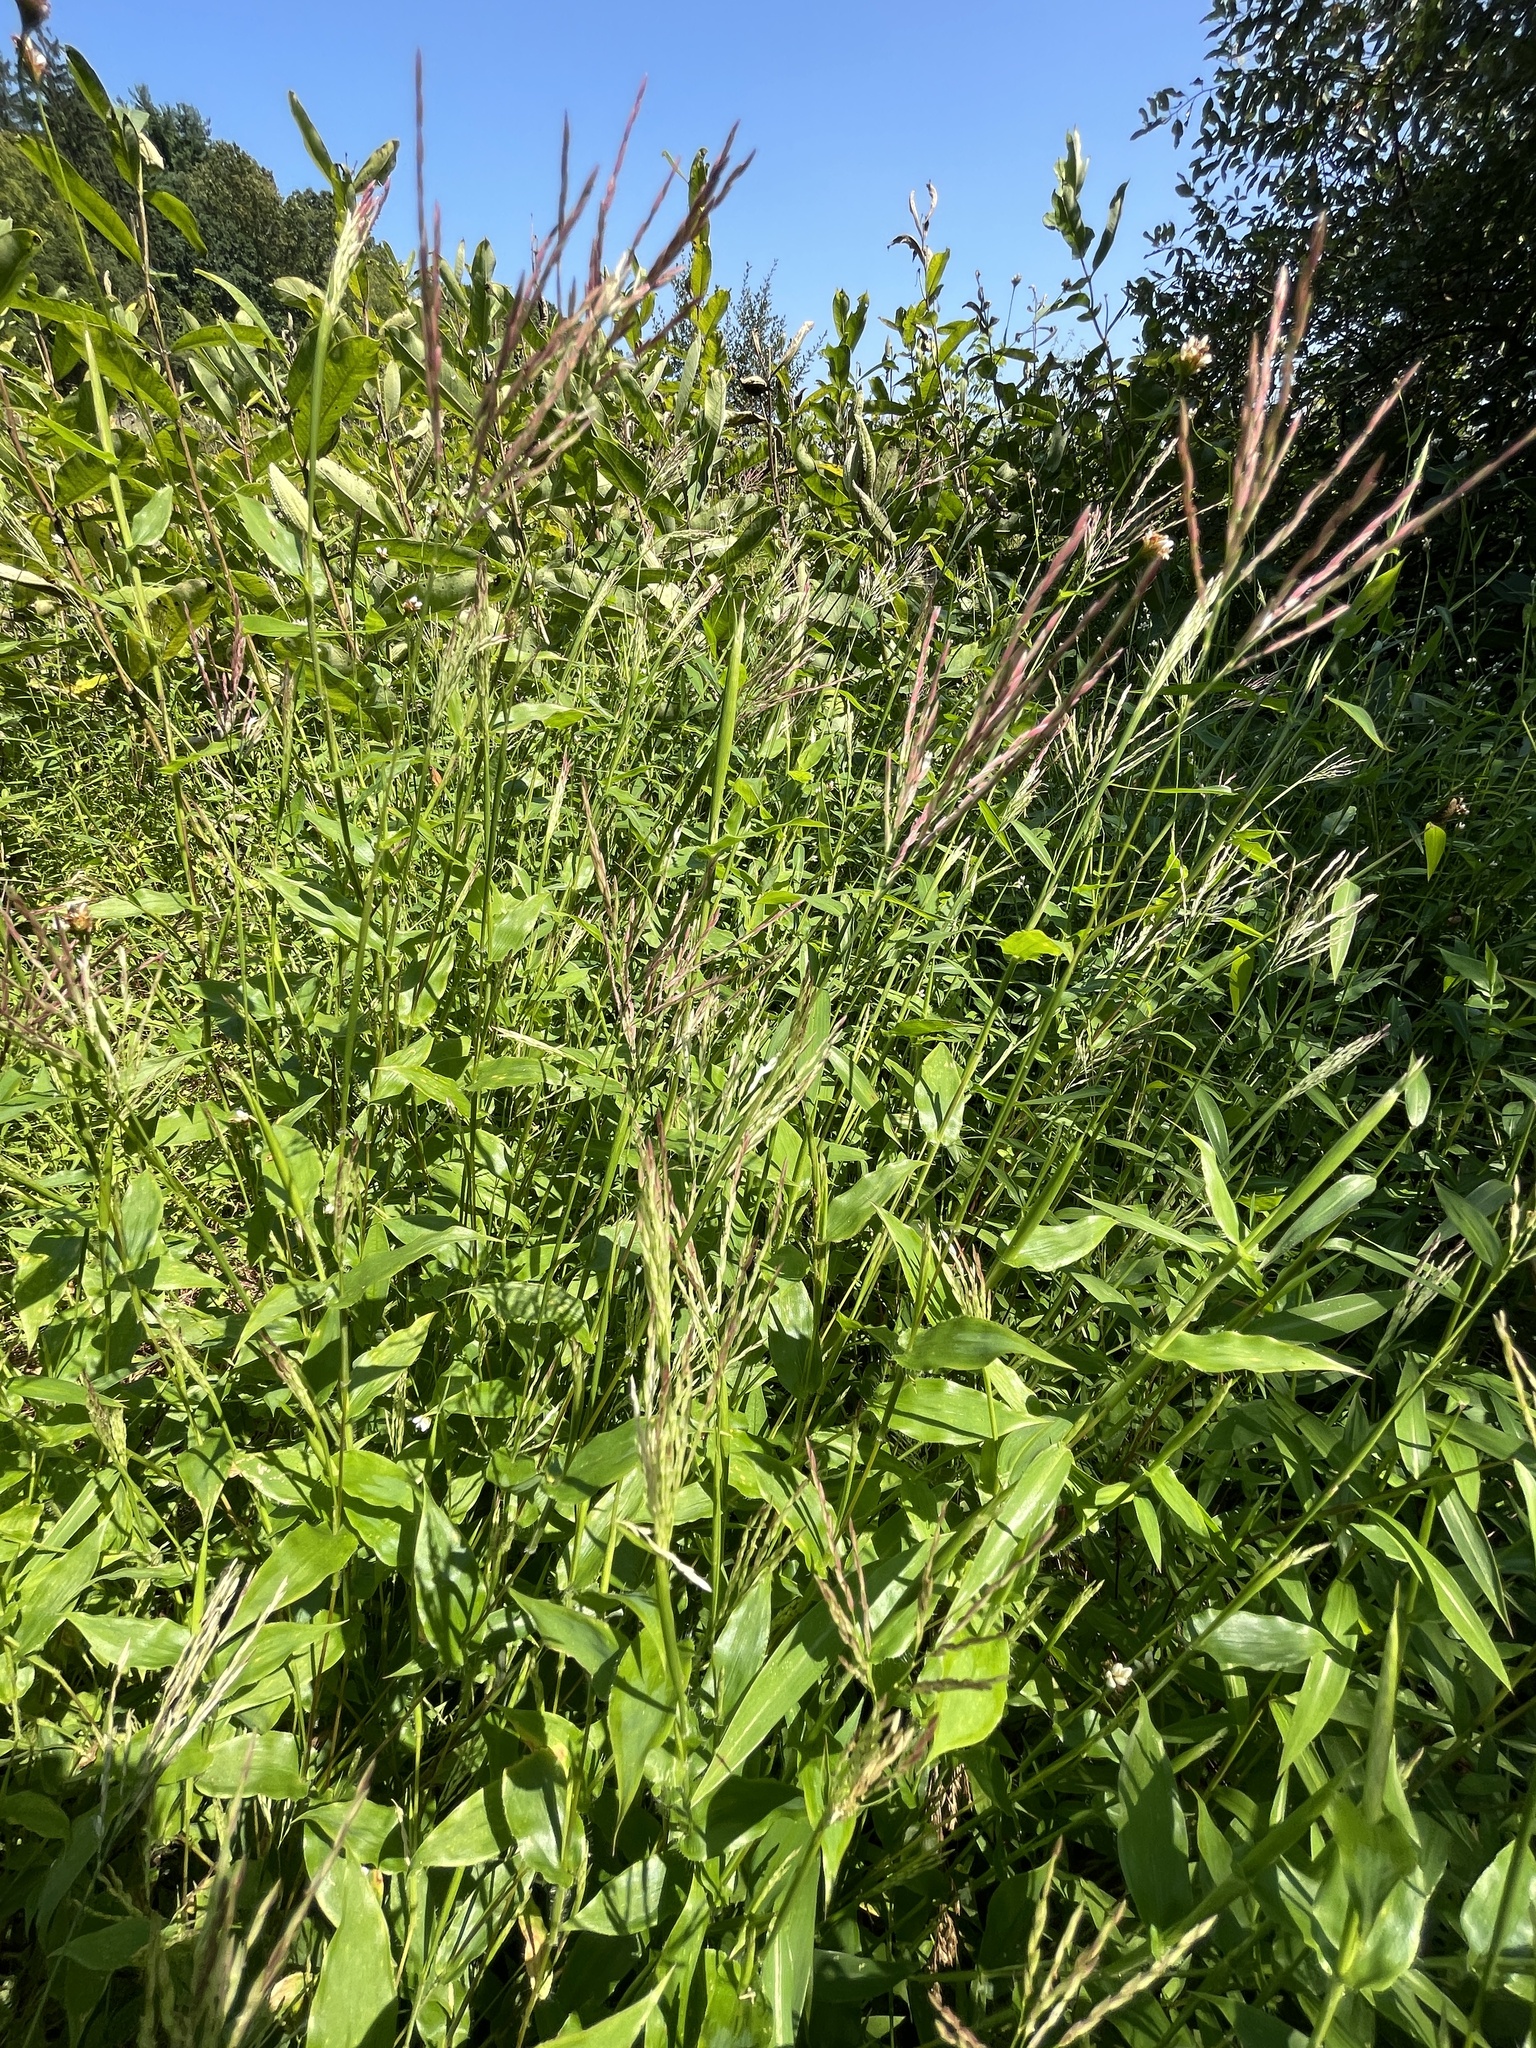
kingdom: Plantae
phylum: Tracheophyta
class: Liliopsida
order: Poales
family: Poaceae
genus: Arthraxon
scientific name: Arthraxon hispidus
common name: Small carpgrass
